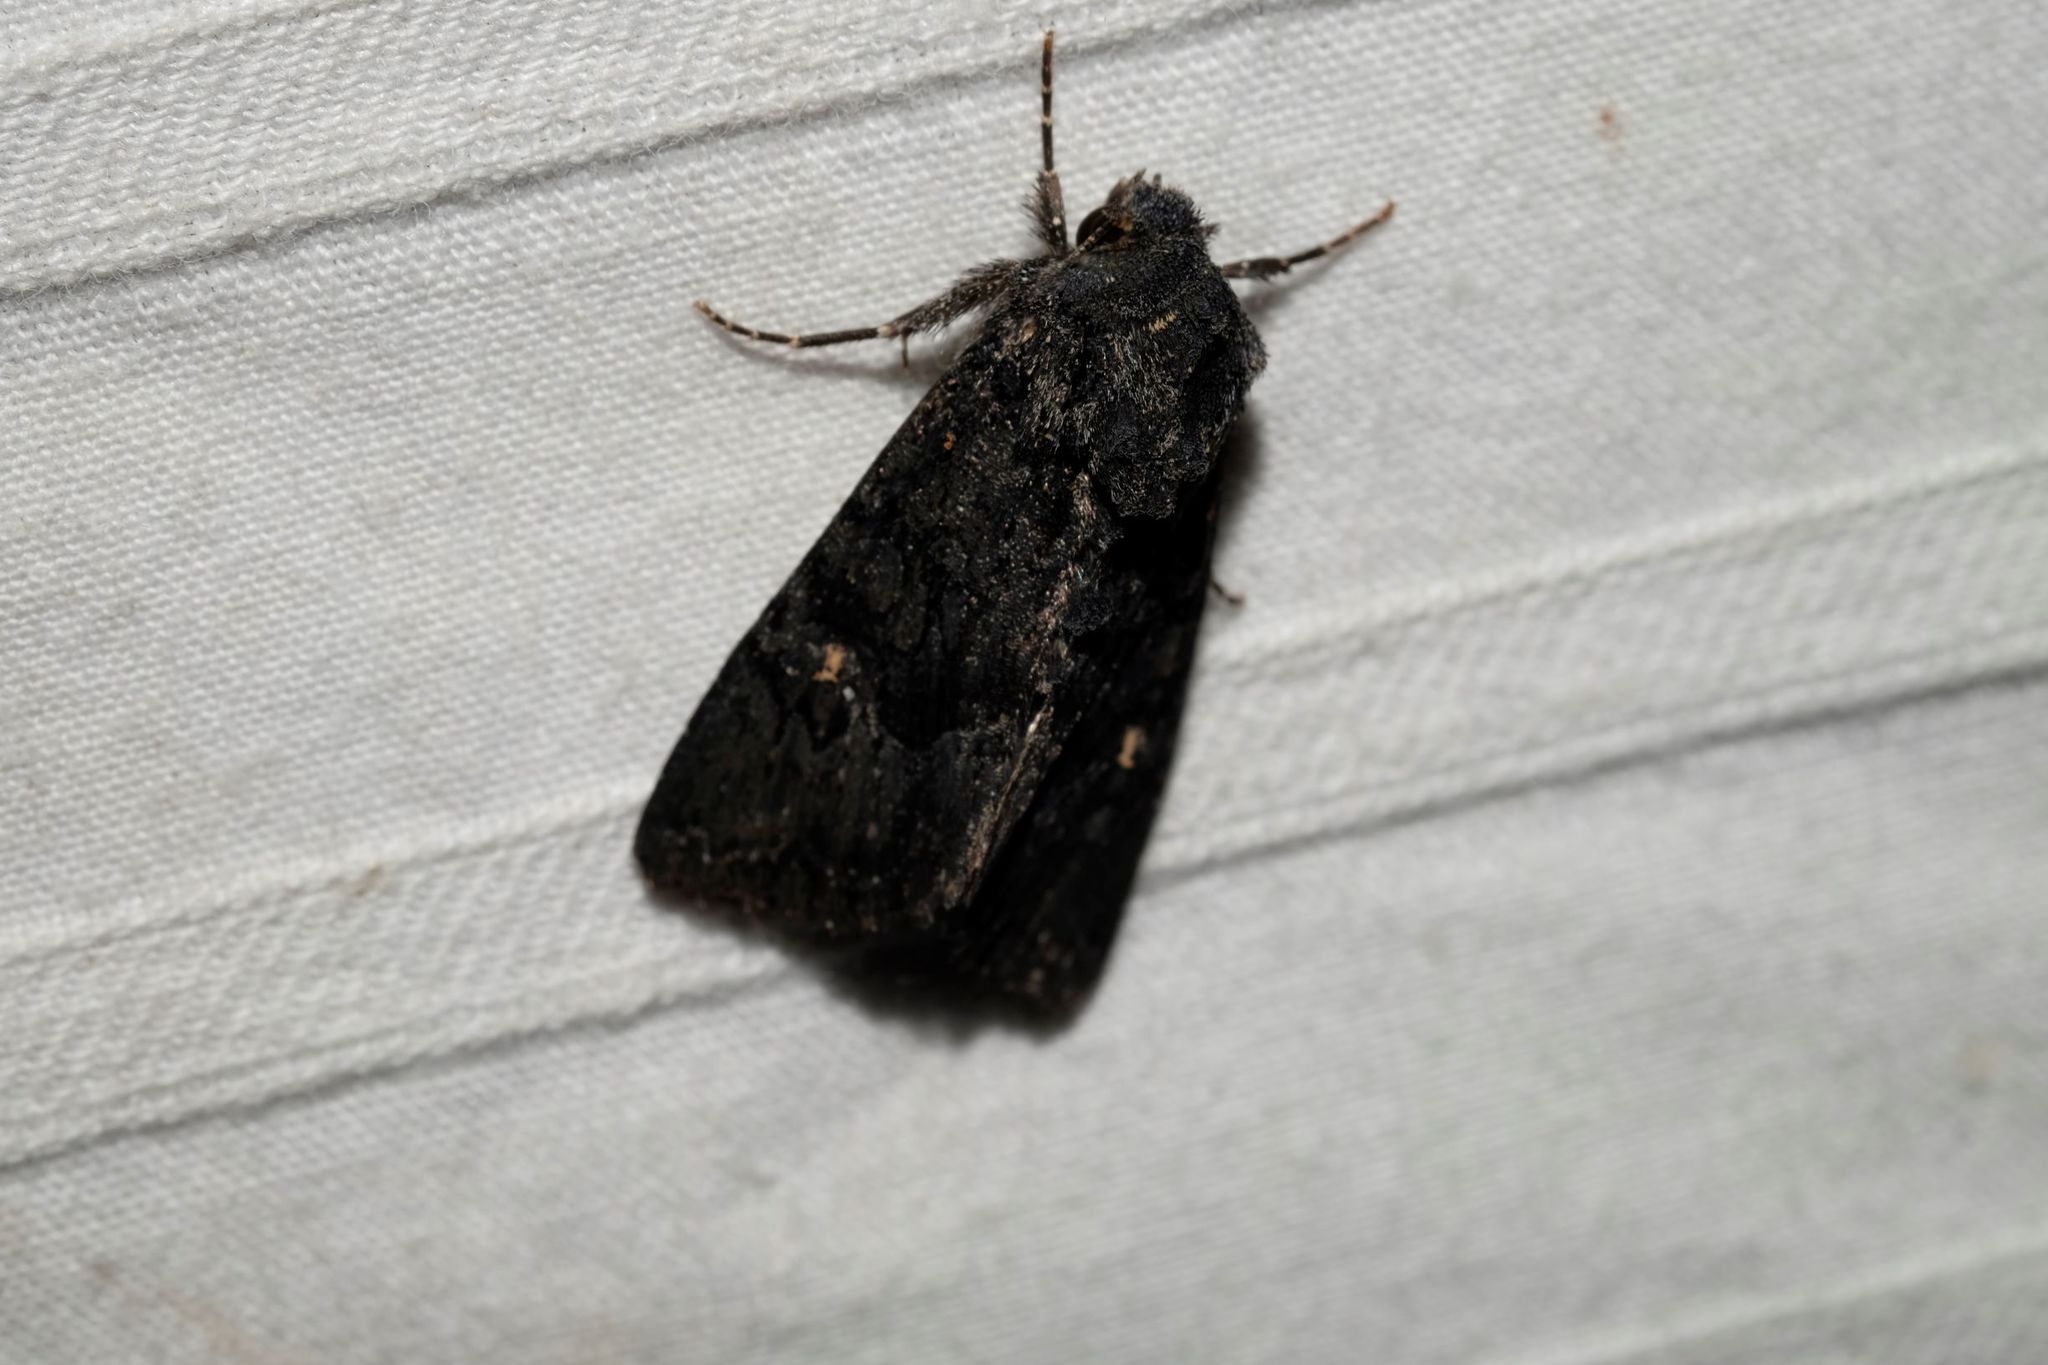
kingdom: Animalia
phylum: Arthropoda
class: Insecta
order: Lepidoptera
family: Noctuidae
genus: Neumichtis
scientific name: Neumichtis nigerrima
